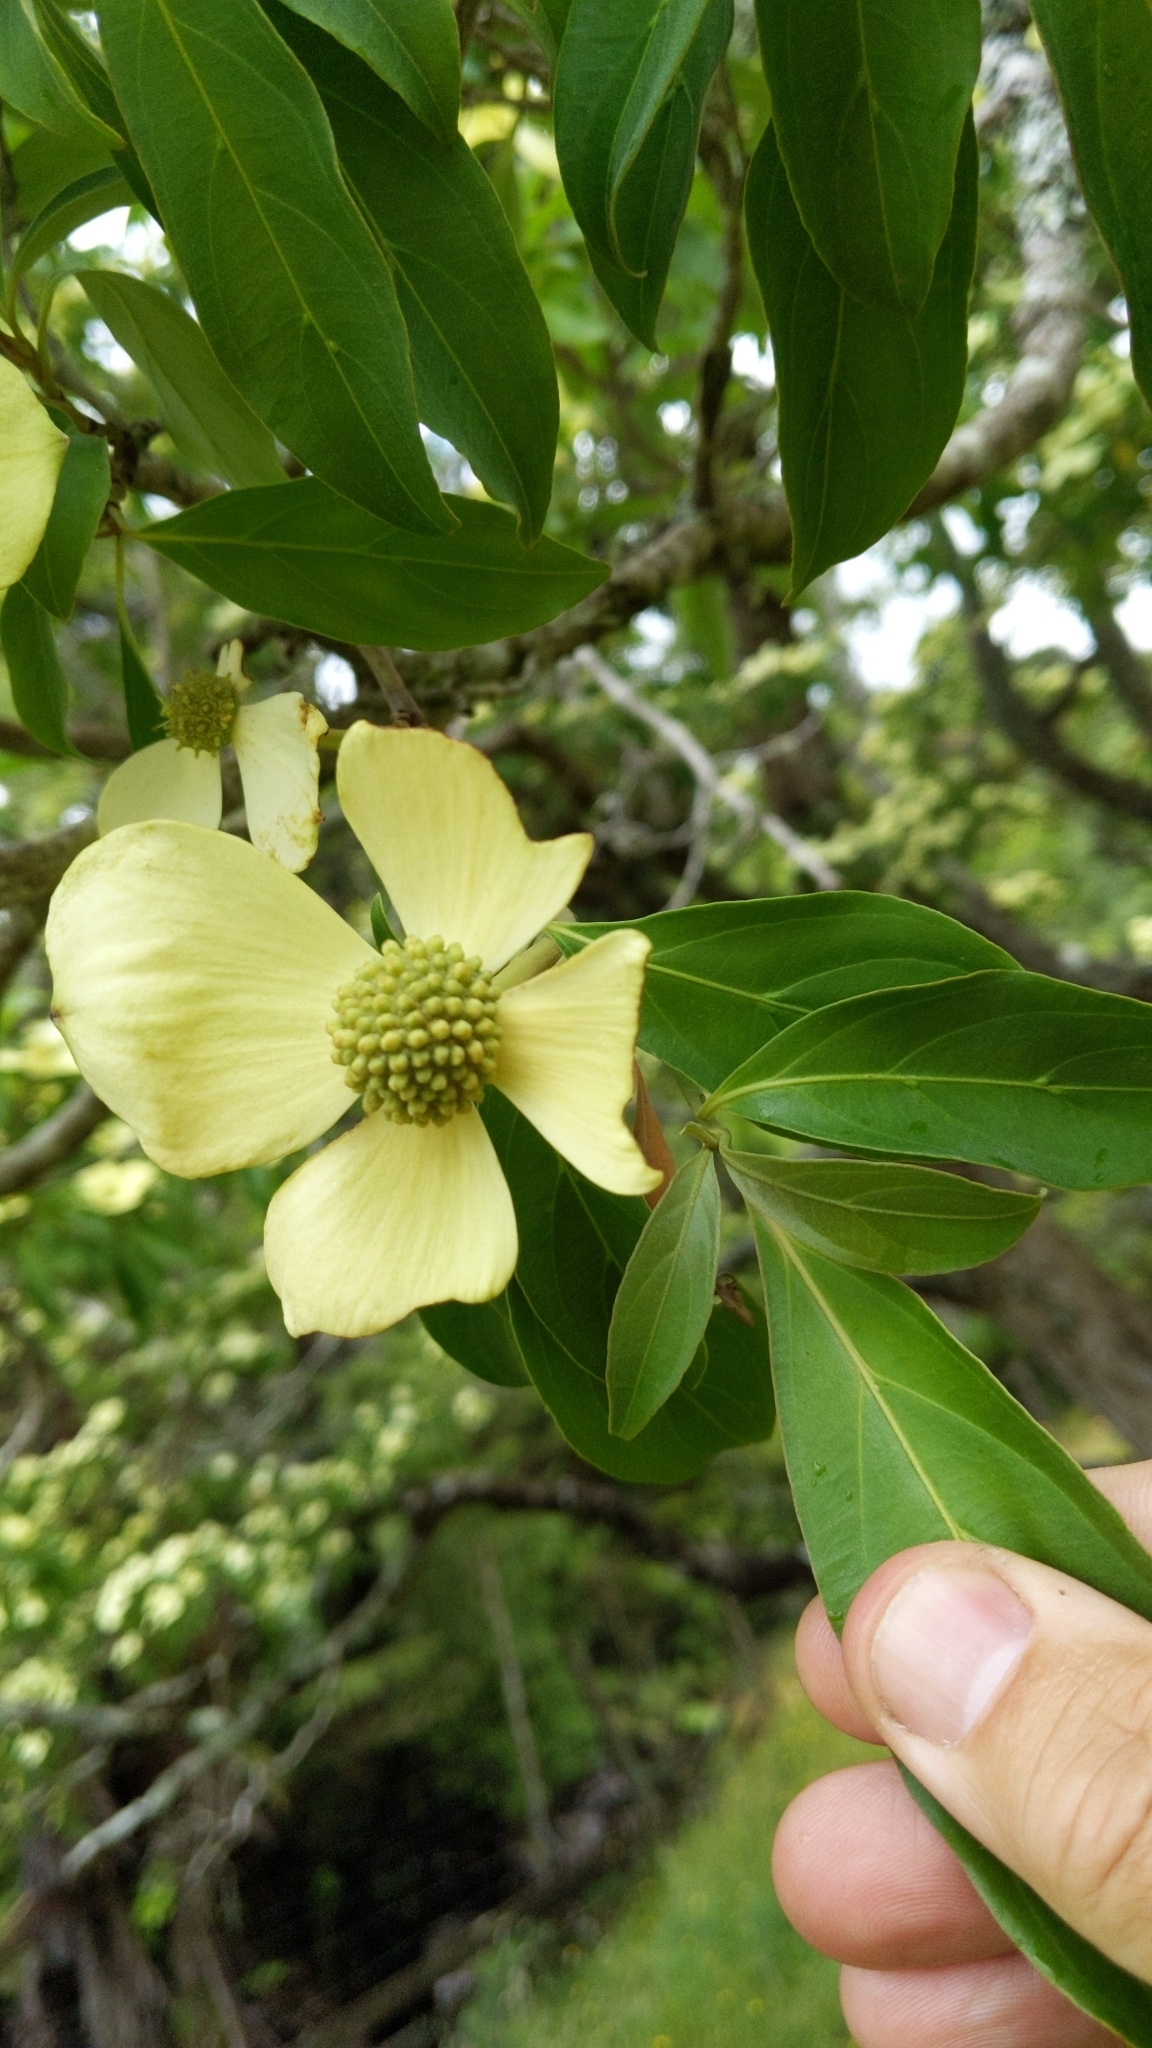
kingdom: Plantae
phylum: Tracheophyta
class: Magnoliopsida
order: Cornales
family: Cornaceae
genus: Cornus
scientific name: Cornus capitata
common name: Bentham's cornel
